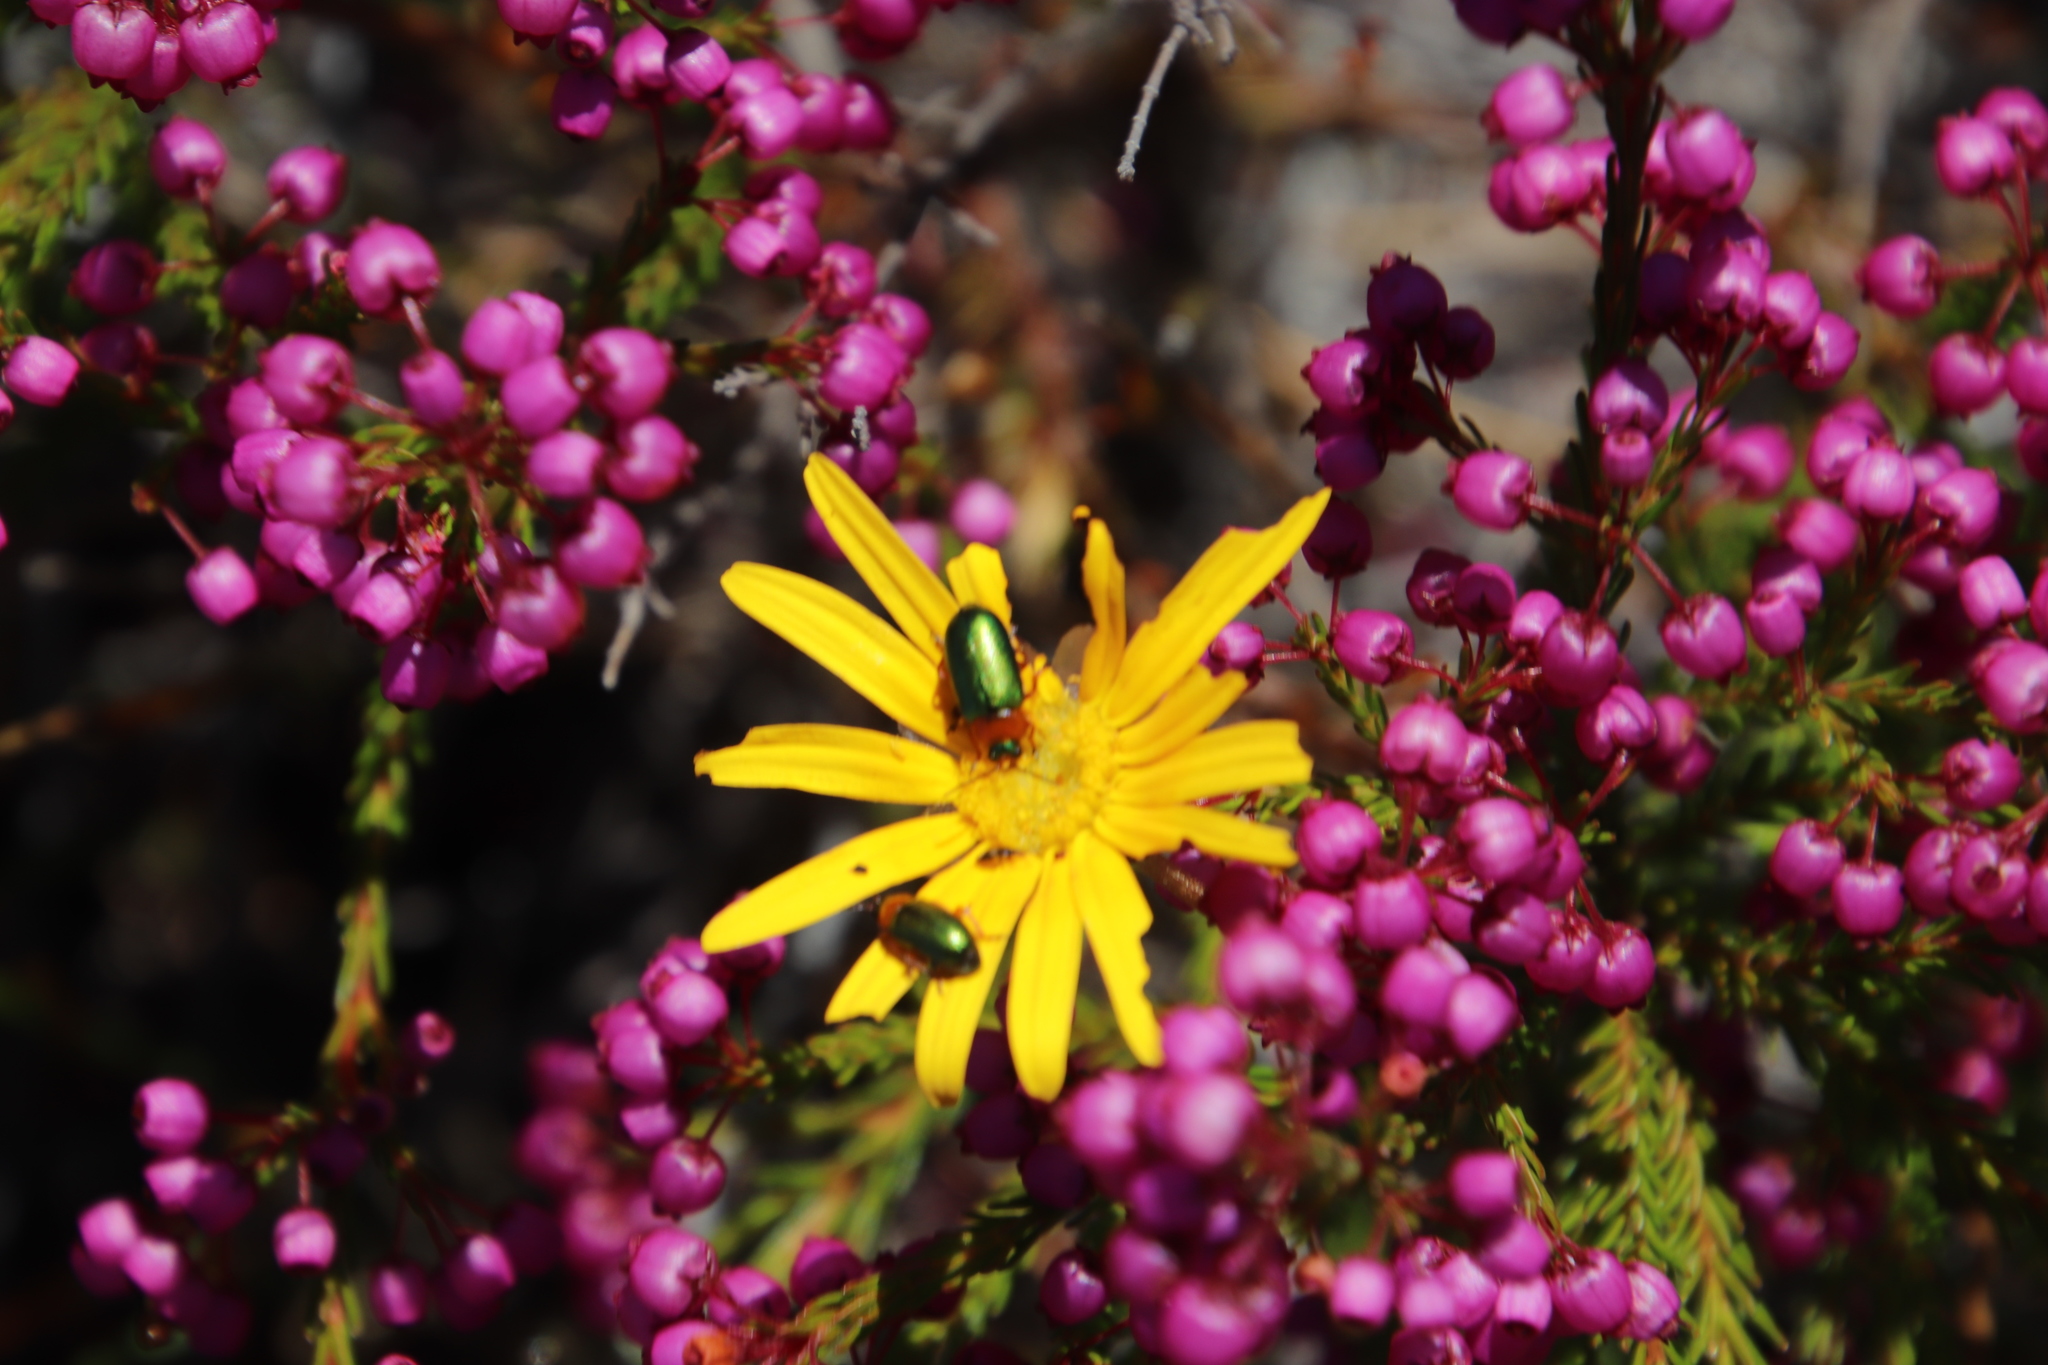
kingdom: Plantae
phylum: Tracheophyta
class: Magnoliopsida
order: Ericales
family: Ericaceae
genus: Erica
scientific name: Erica multumbellifera
